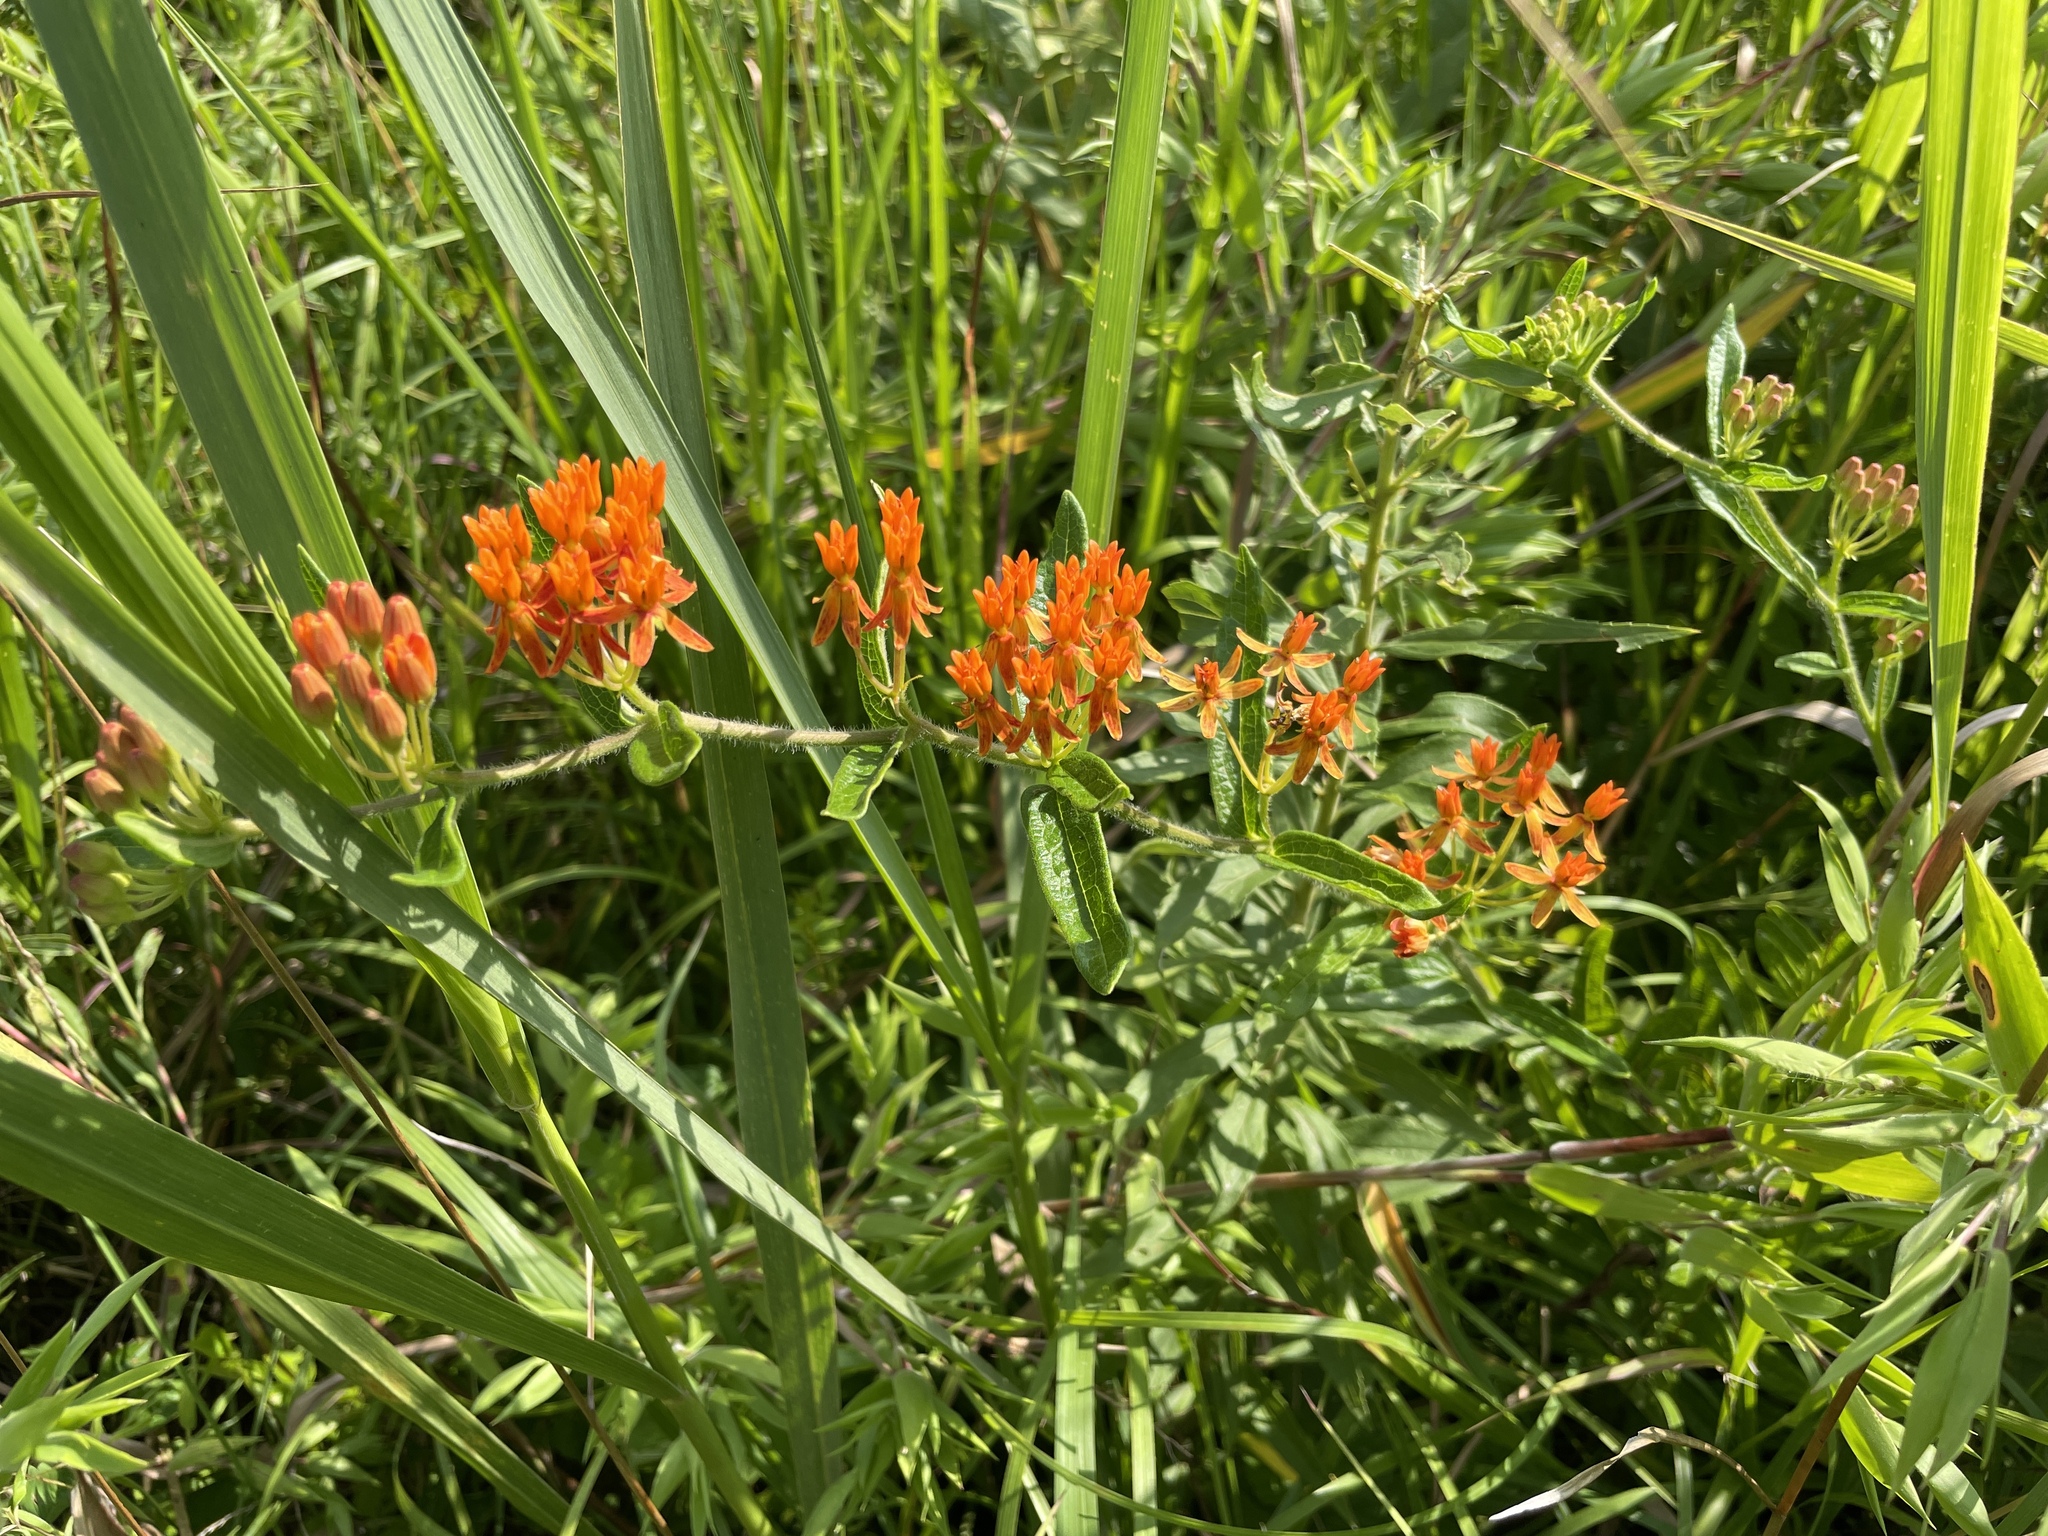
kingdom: Plantae
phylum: Tracheophyta
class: Magnoliopsida
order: Gentianales
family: Apocynaceae
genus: Asclepias
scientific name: Asclepias tuberosa
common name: Butterfly milkweed
